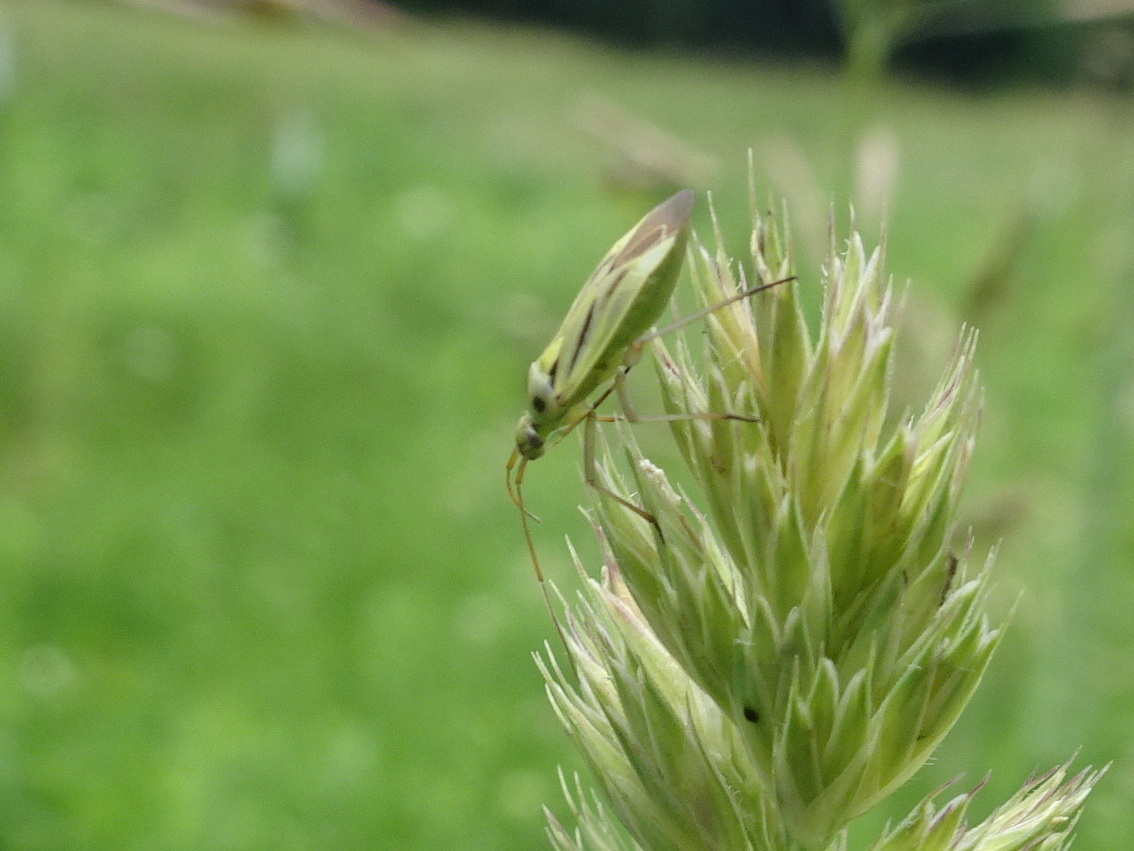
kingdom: Animalia
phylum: Arthropoda
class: Insecta
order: Hemiptera
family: Miridae
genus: Stenotus
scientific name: Stenotus binotatus
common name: Plant bug
